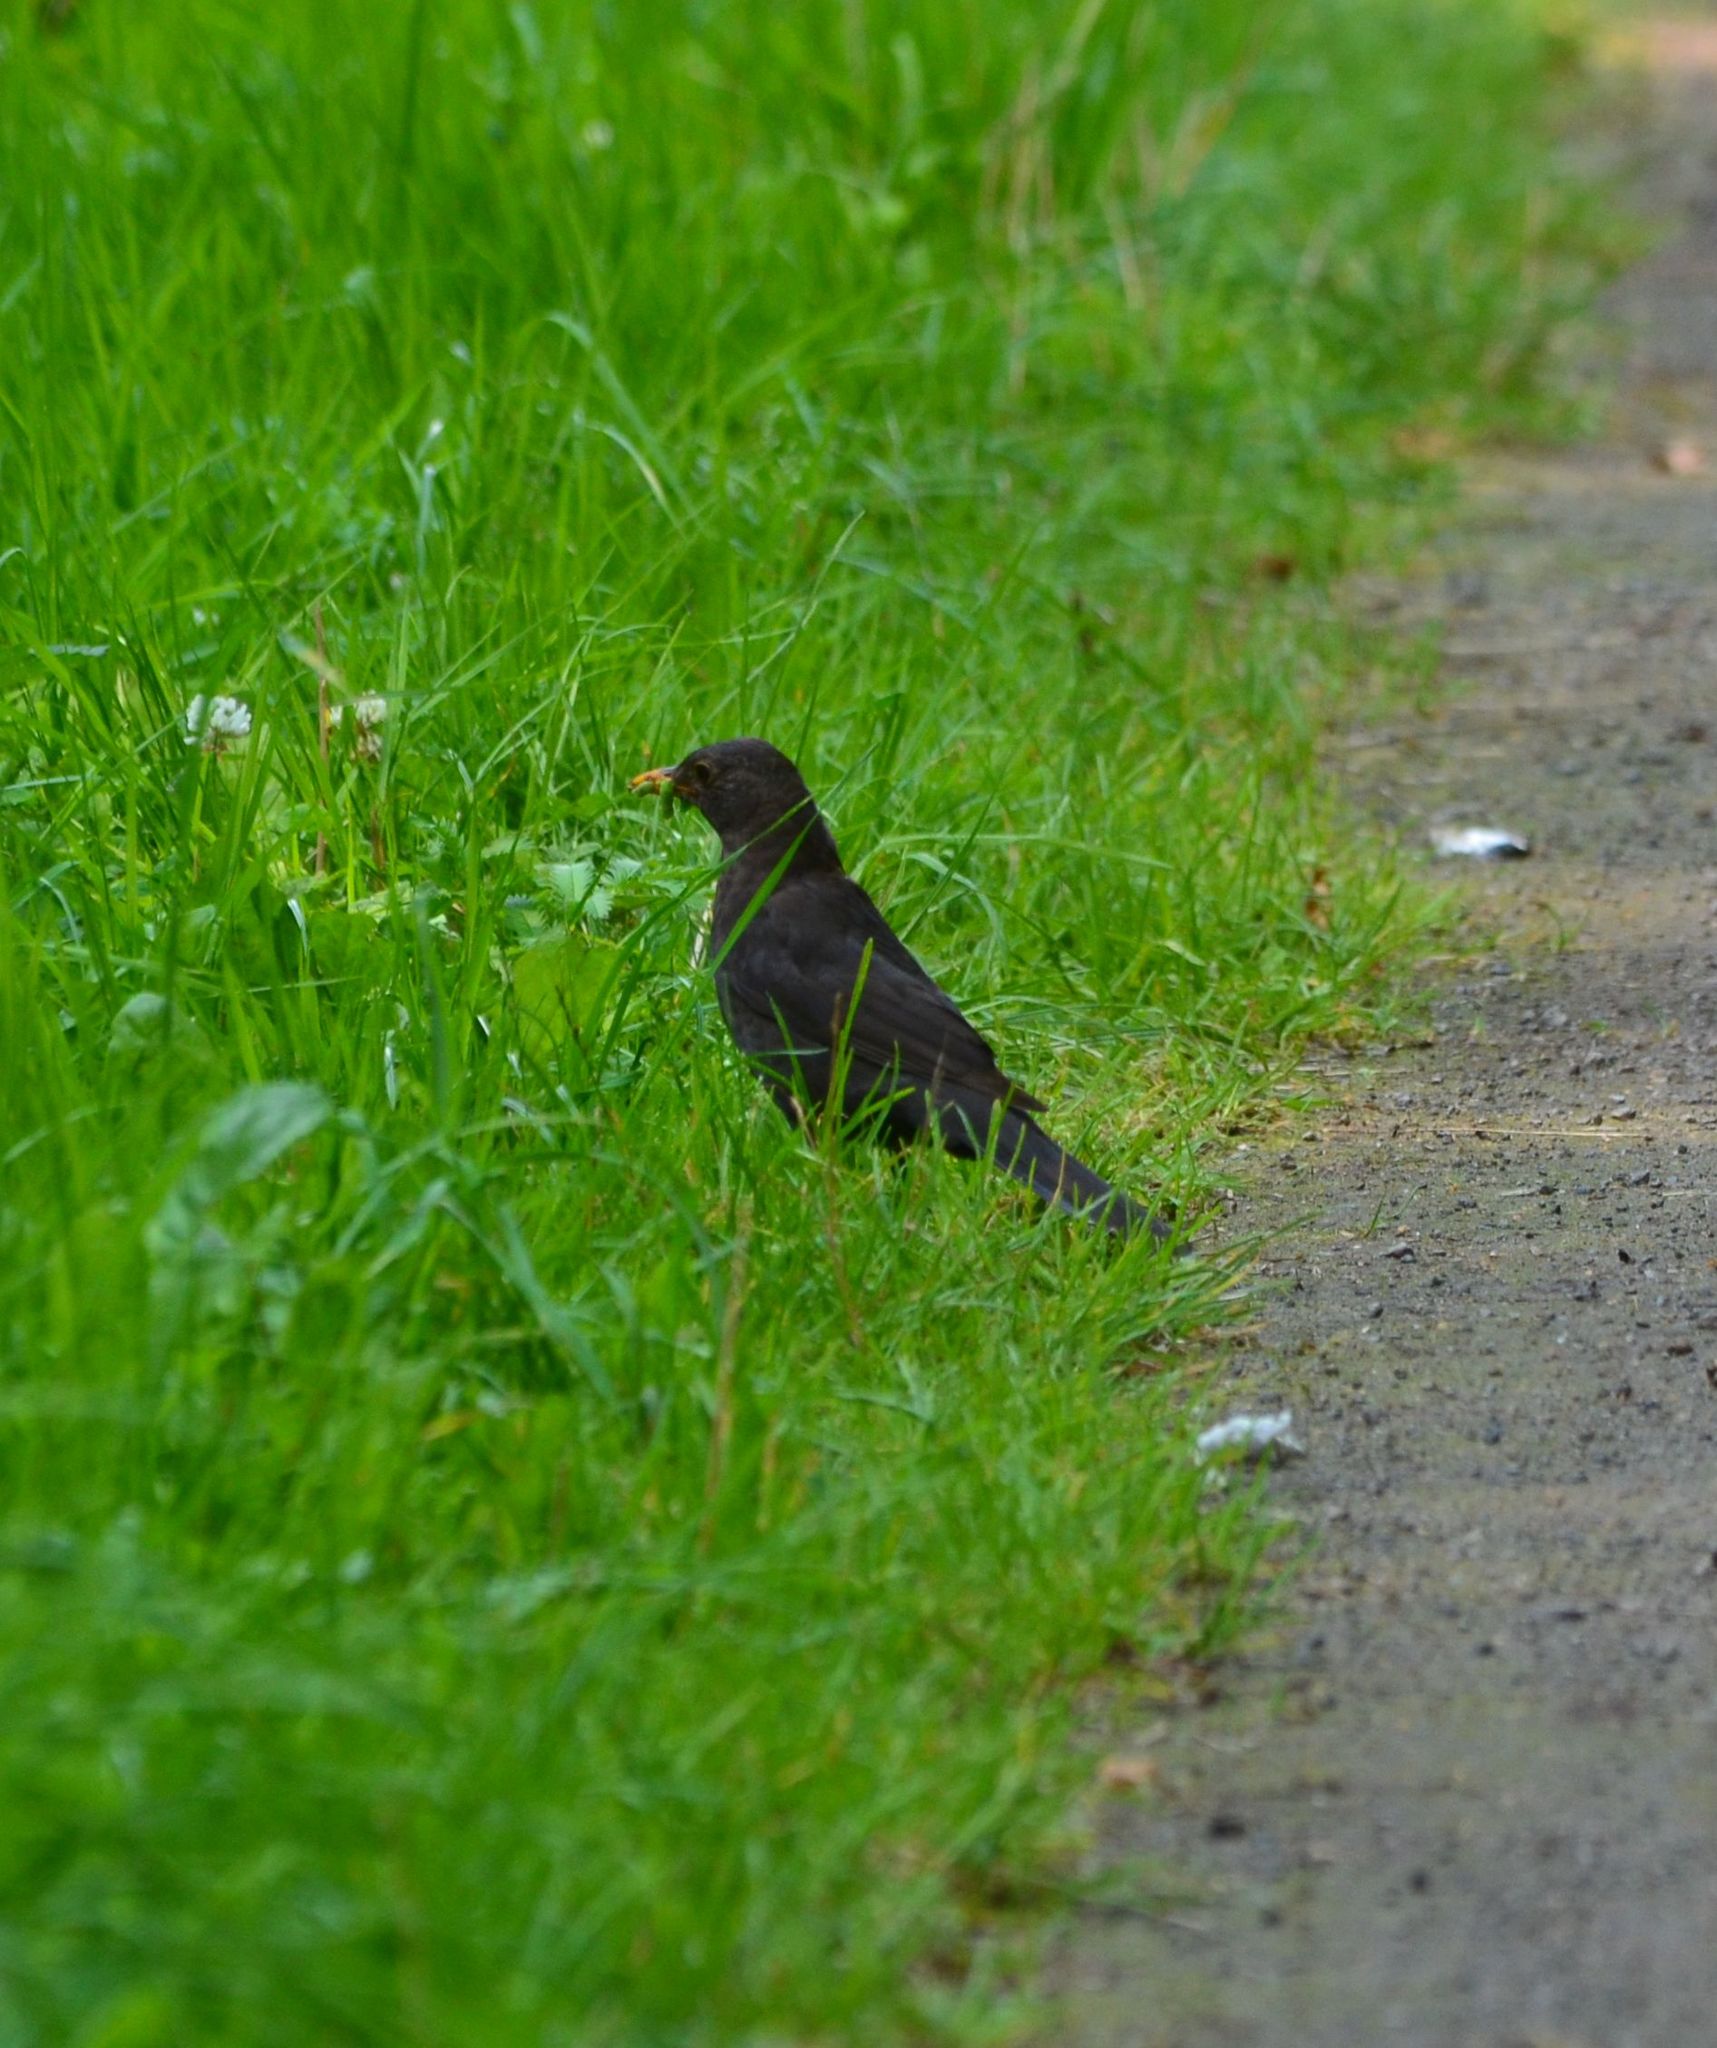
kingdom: Animalia
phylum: Chordata
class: Aves
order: Passeriformes
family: Turdidae
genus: Turdus
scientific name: Turdus merula
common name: Common blackbird
